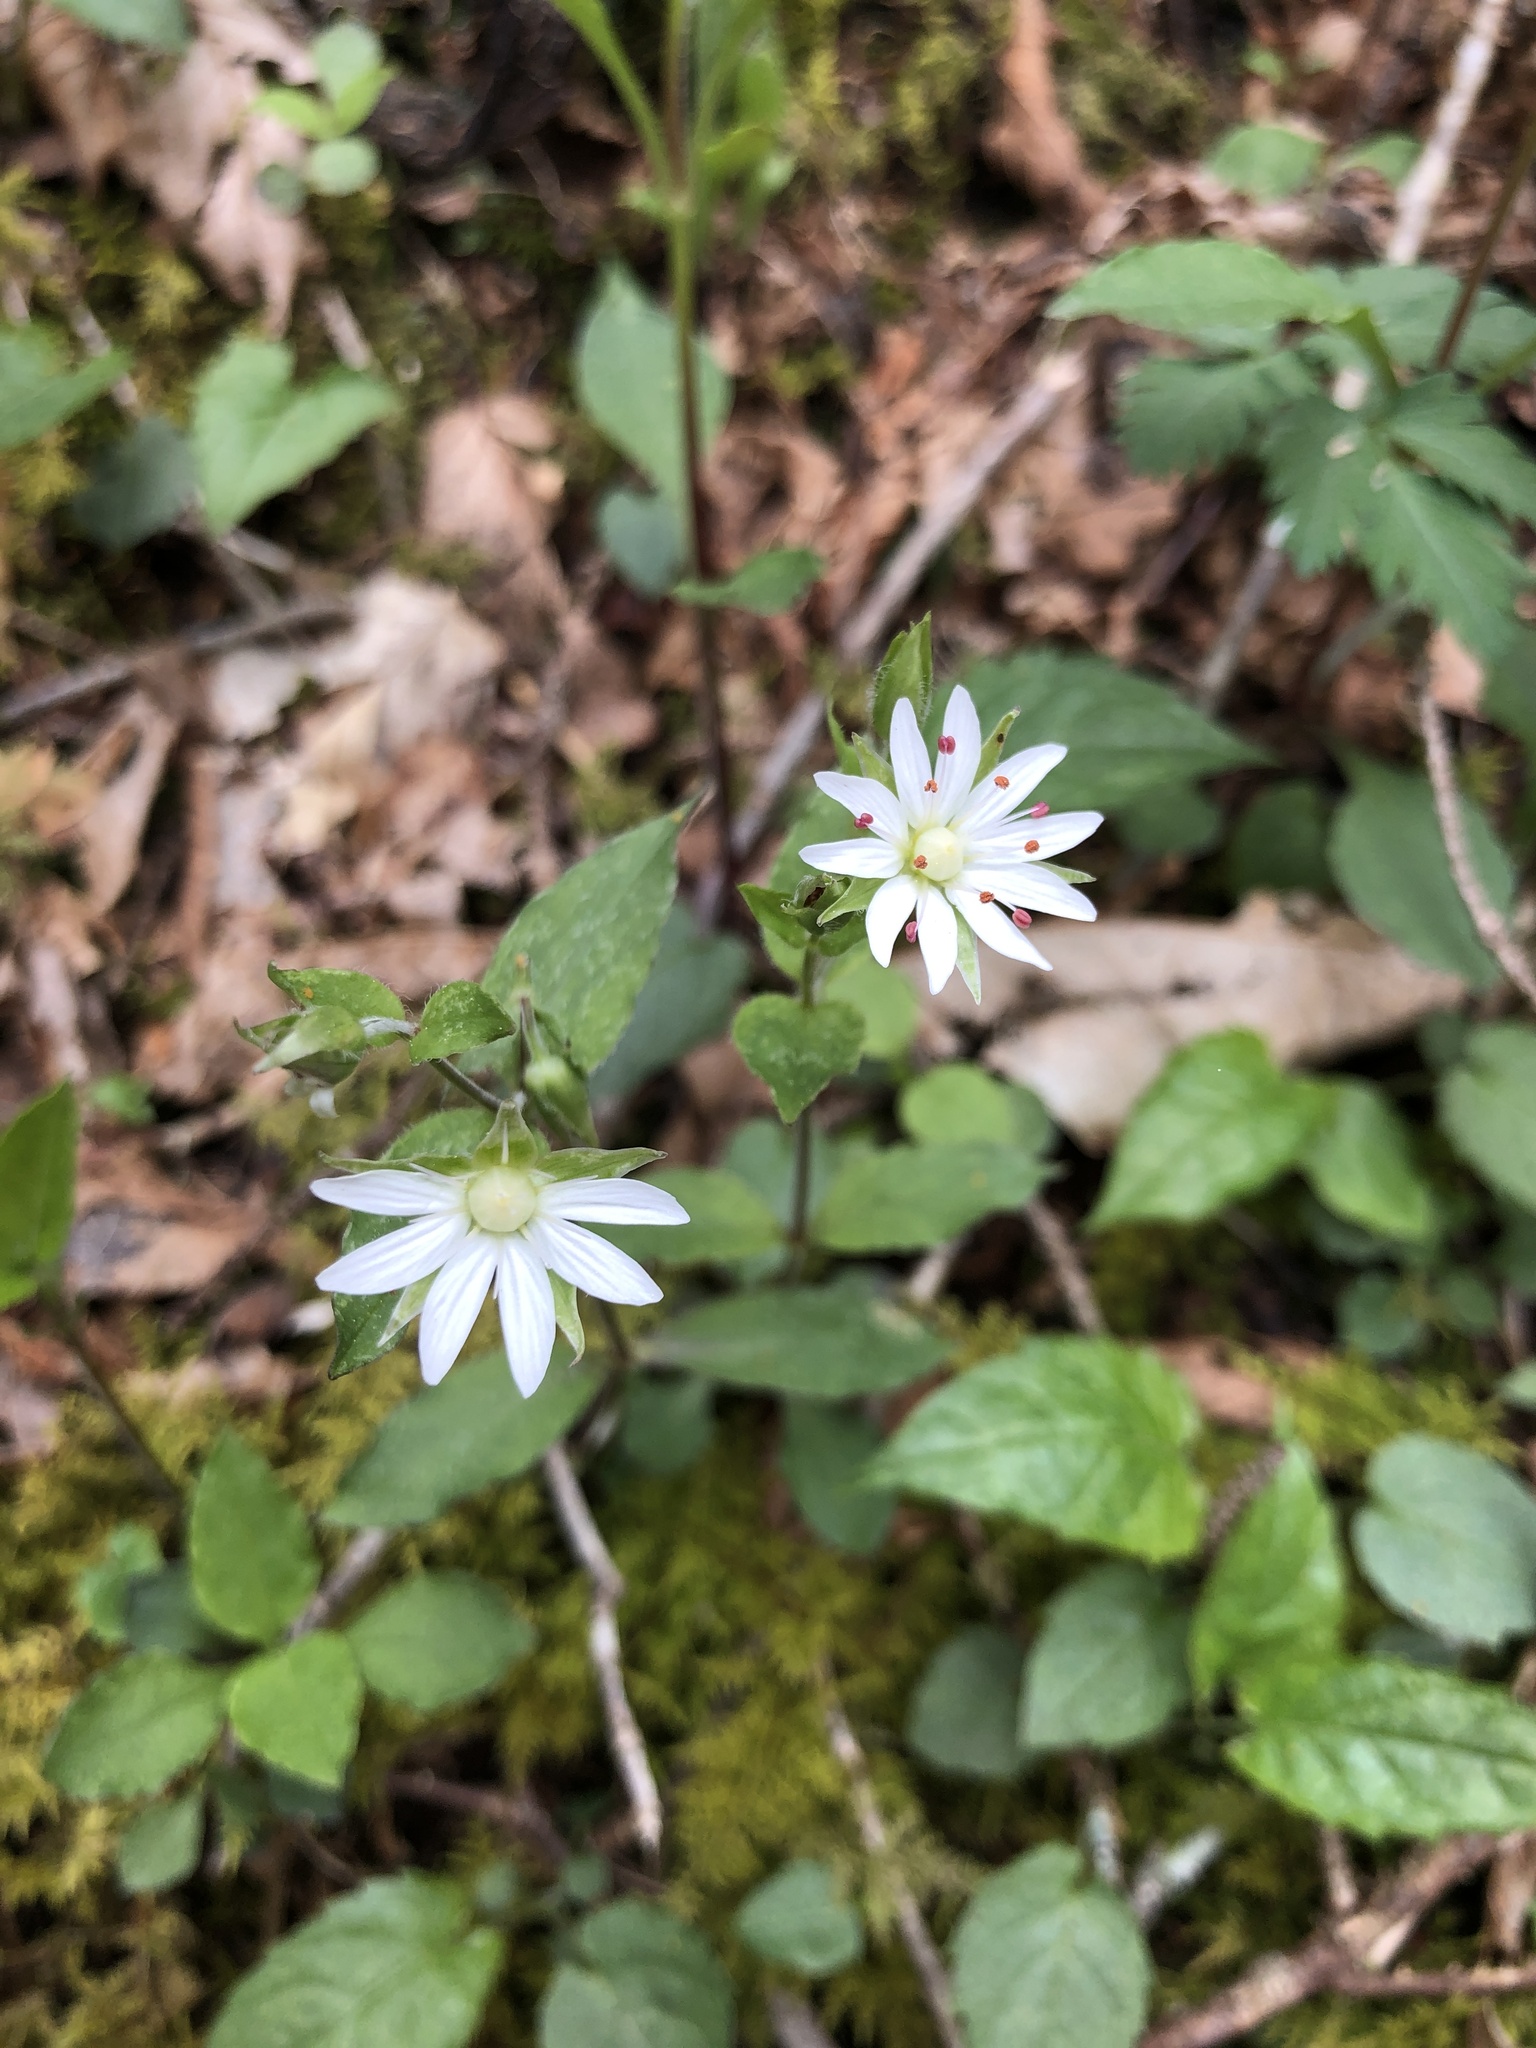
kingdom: Plantae
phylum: Tracheophyta
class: Magnoliopsida
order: Caryophyllales
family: Caryophyllaceae
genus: Stellaria
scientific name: Stellaria corei
